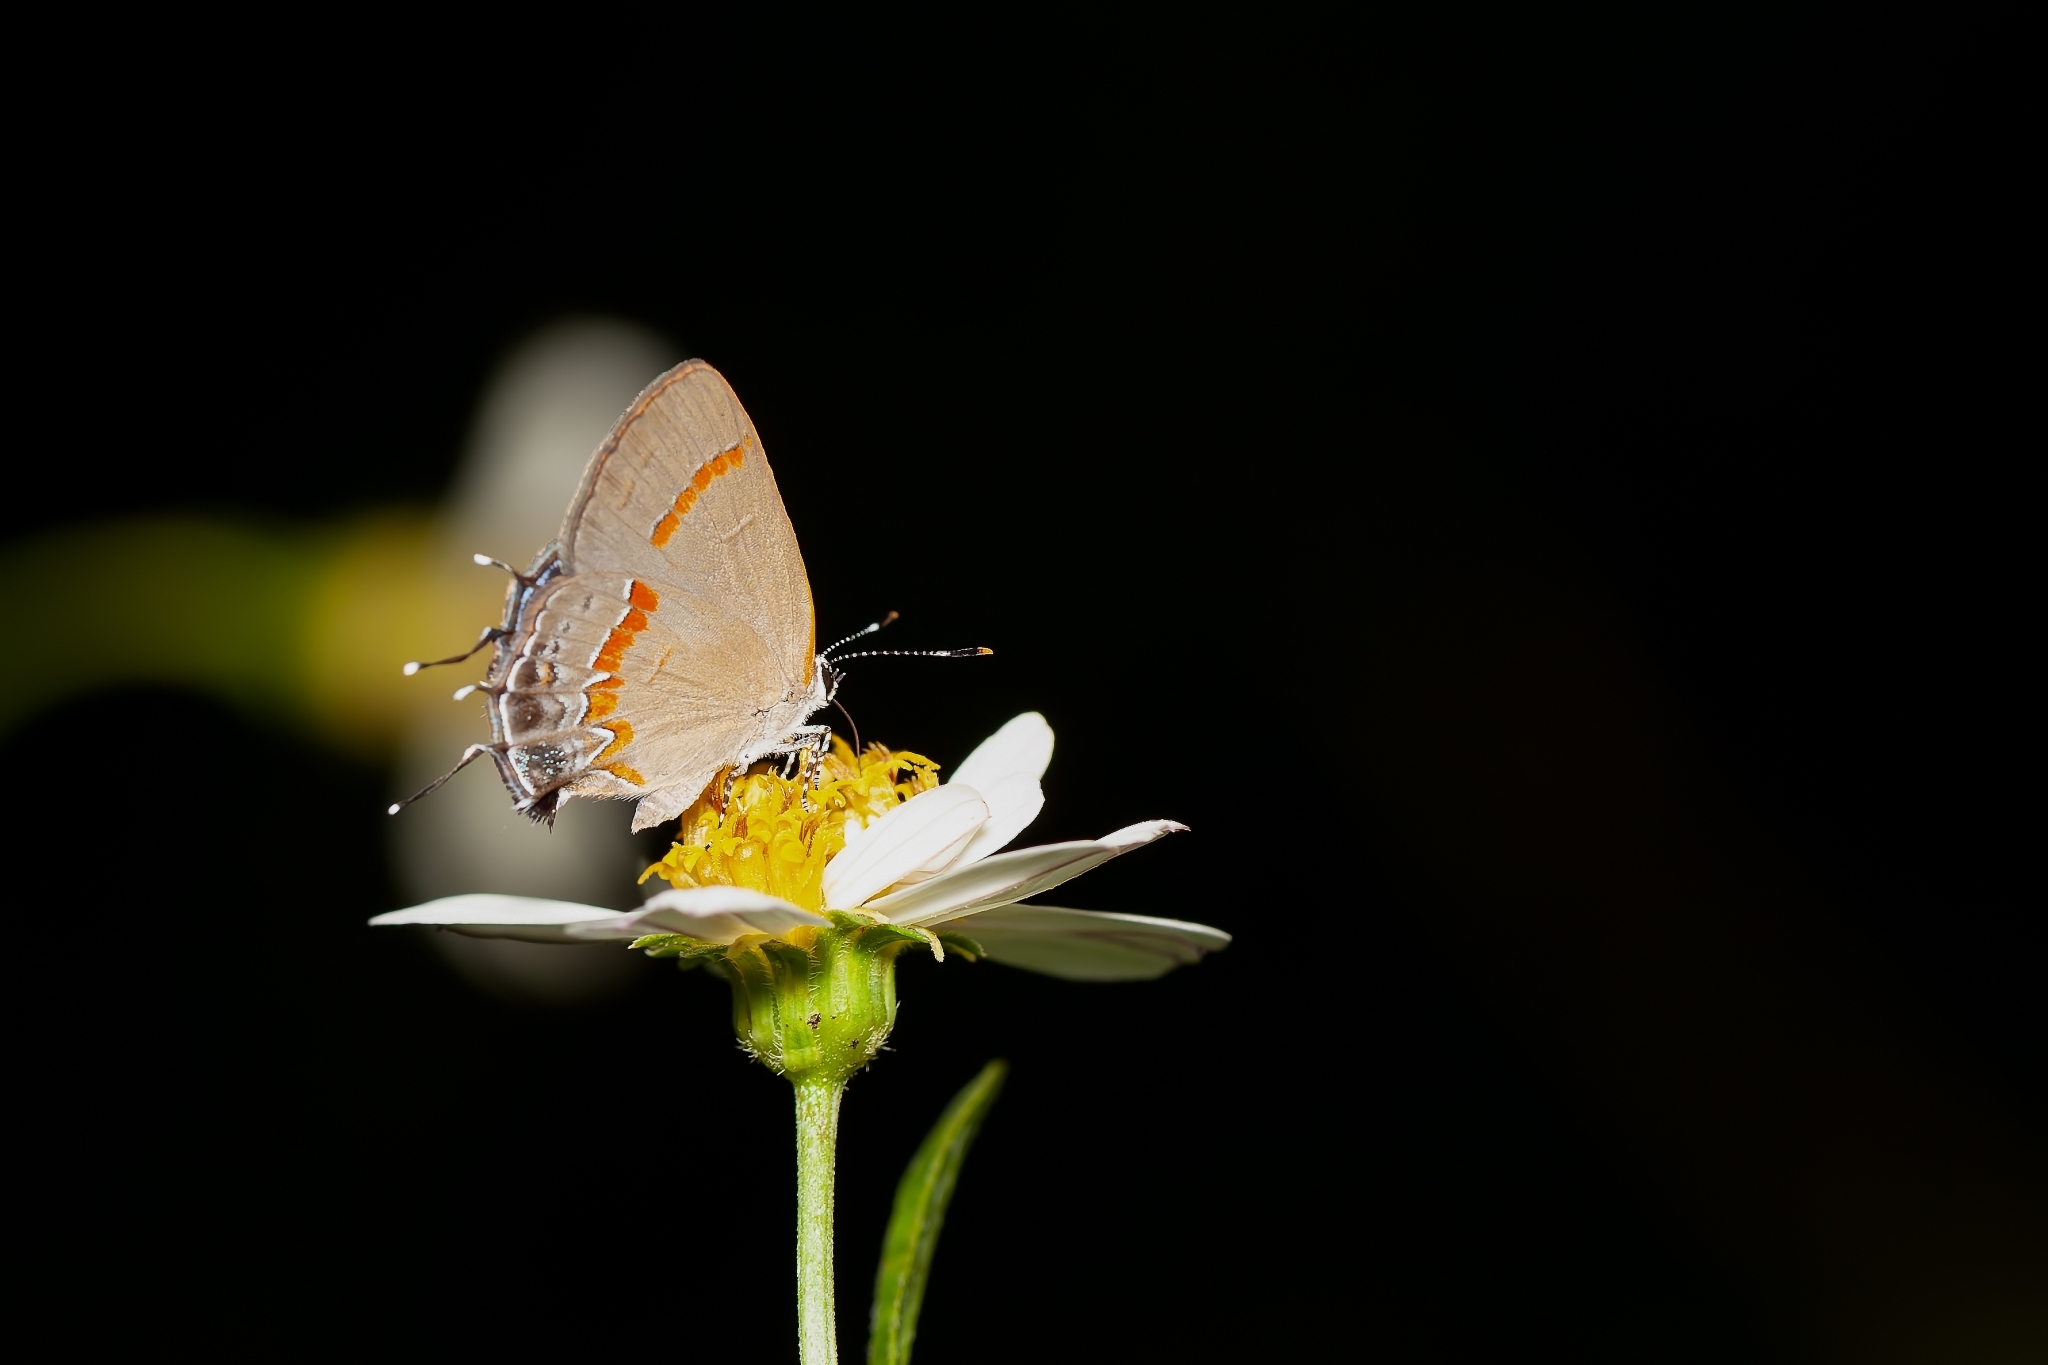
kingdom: Animalia
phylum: Arthropoda
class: Insecta
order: Lepidoptera
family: Lycaenidae
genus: Calycopis
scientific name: Calycopis cecrops
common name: Red-banded hairstreak
